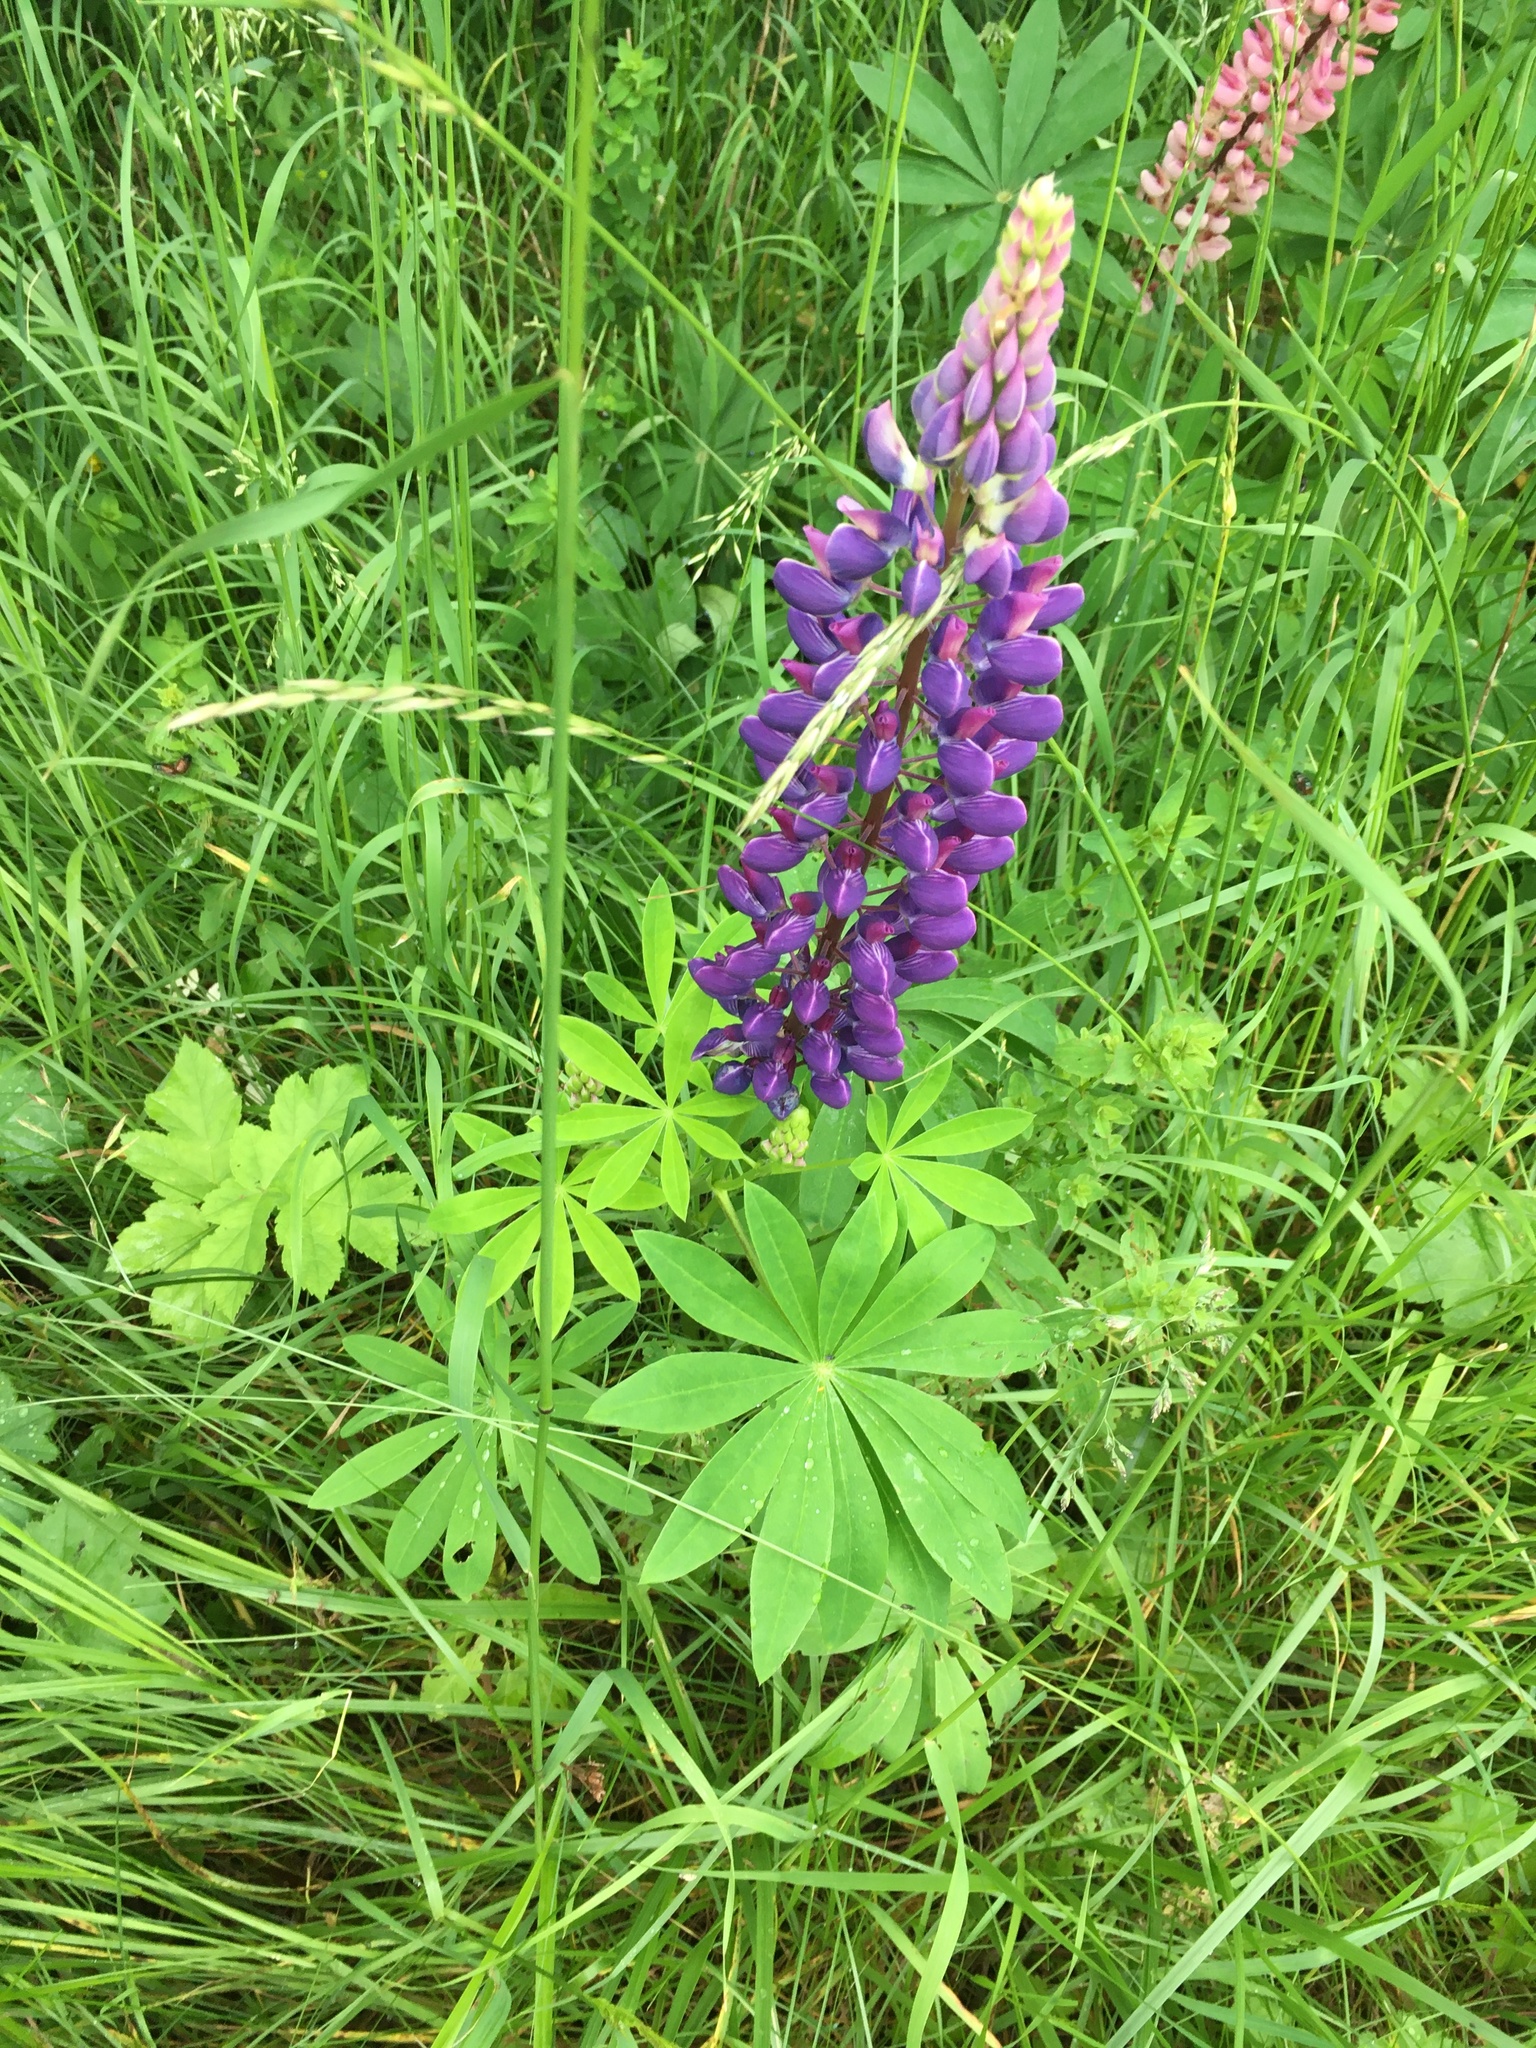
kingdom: Plantae
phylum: Tracheophyta
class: Magnoliopsida
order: Fabales
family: Fabaceae
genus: Lupinus
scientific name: Lupinus polyphyllus
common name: Garden lupin
